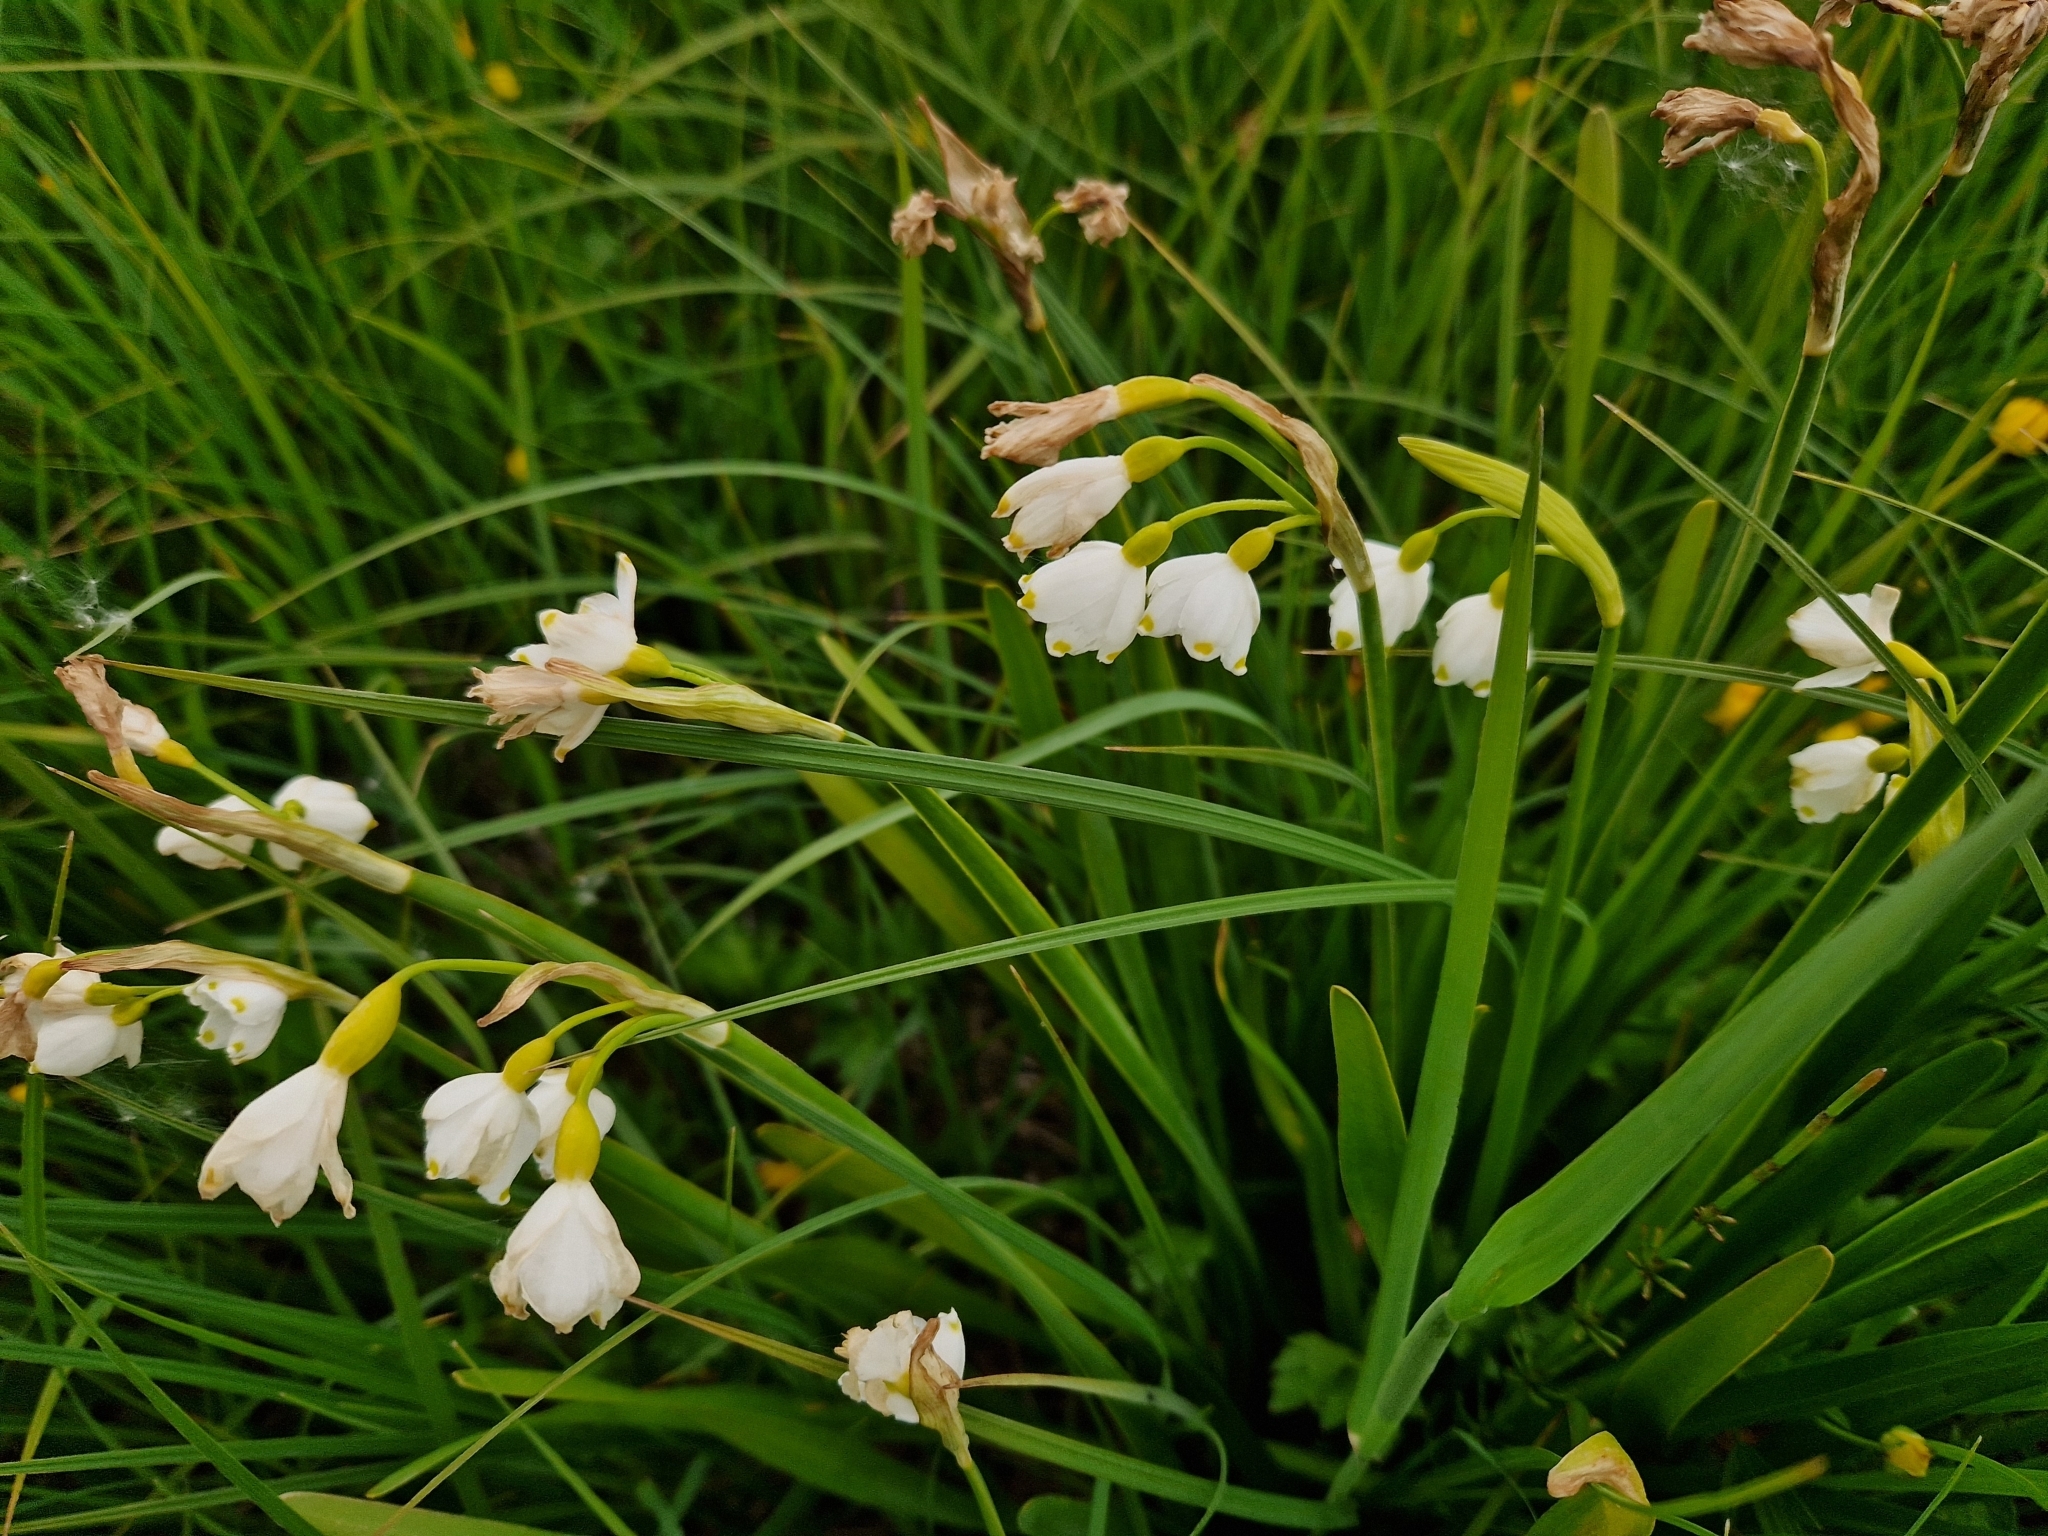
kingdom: Plantae
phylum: Tracheophyta
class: Liliopsida
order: Asparagales
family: Amaryllidaceae
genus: Leucojum
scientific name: Leucojum aestivum
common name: Summer snowflake
